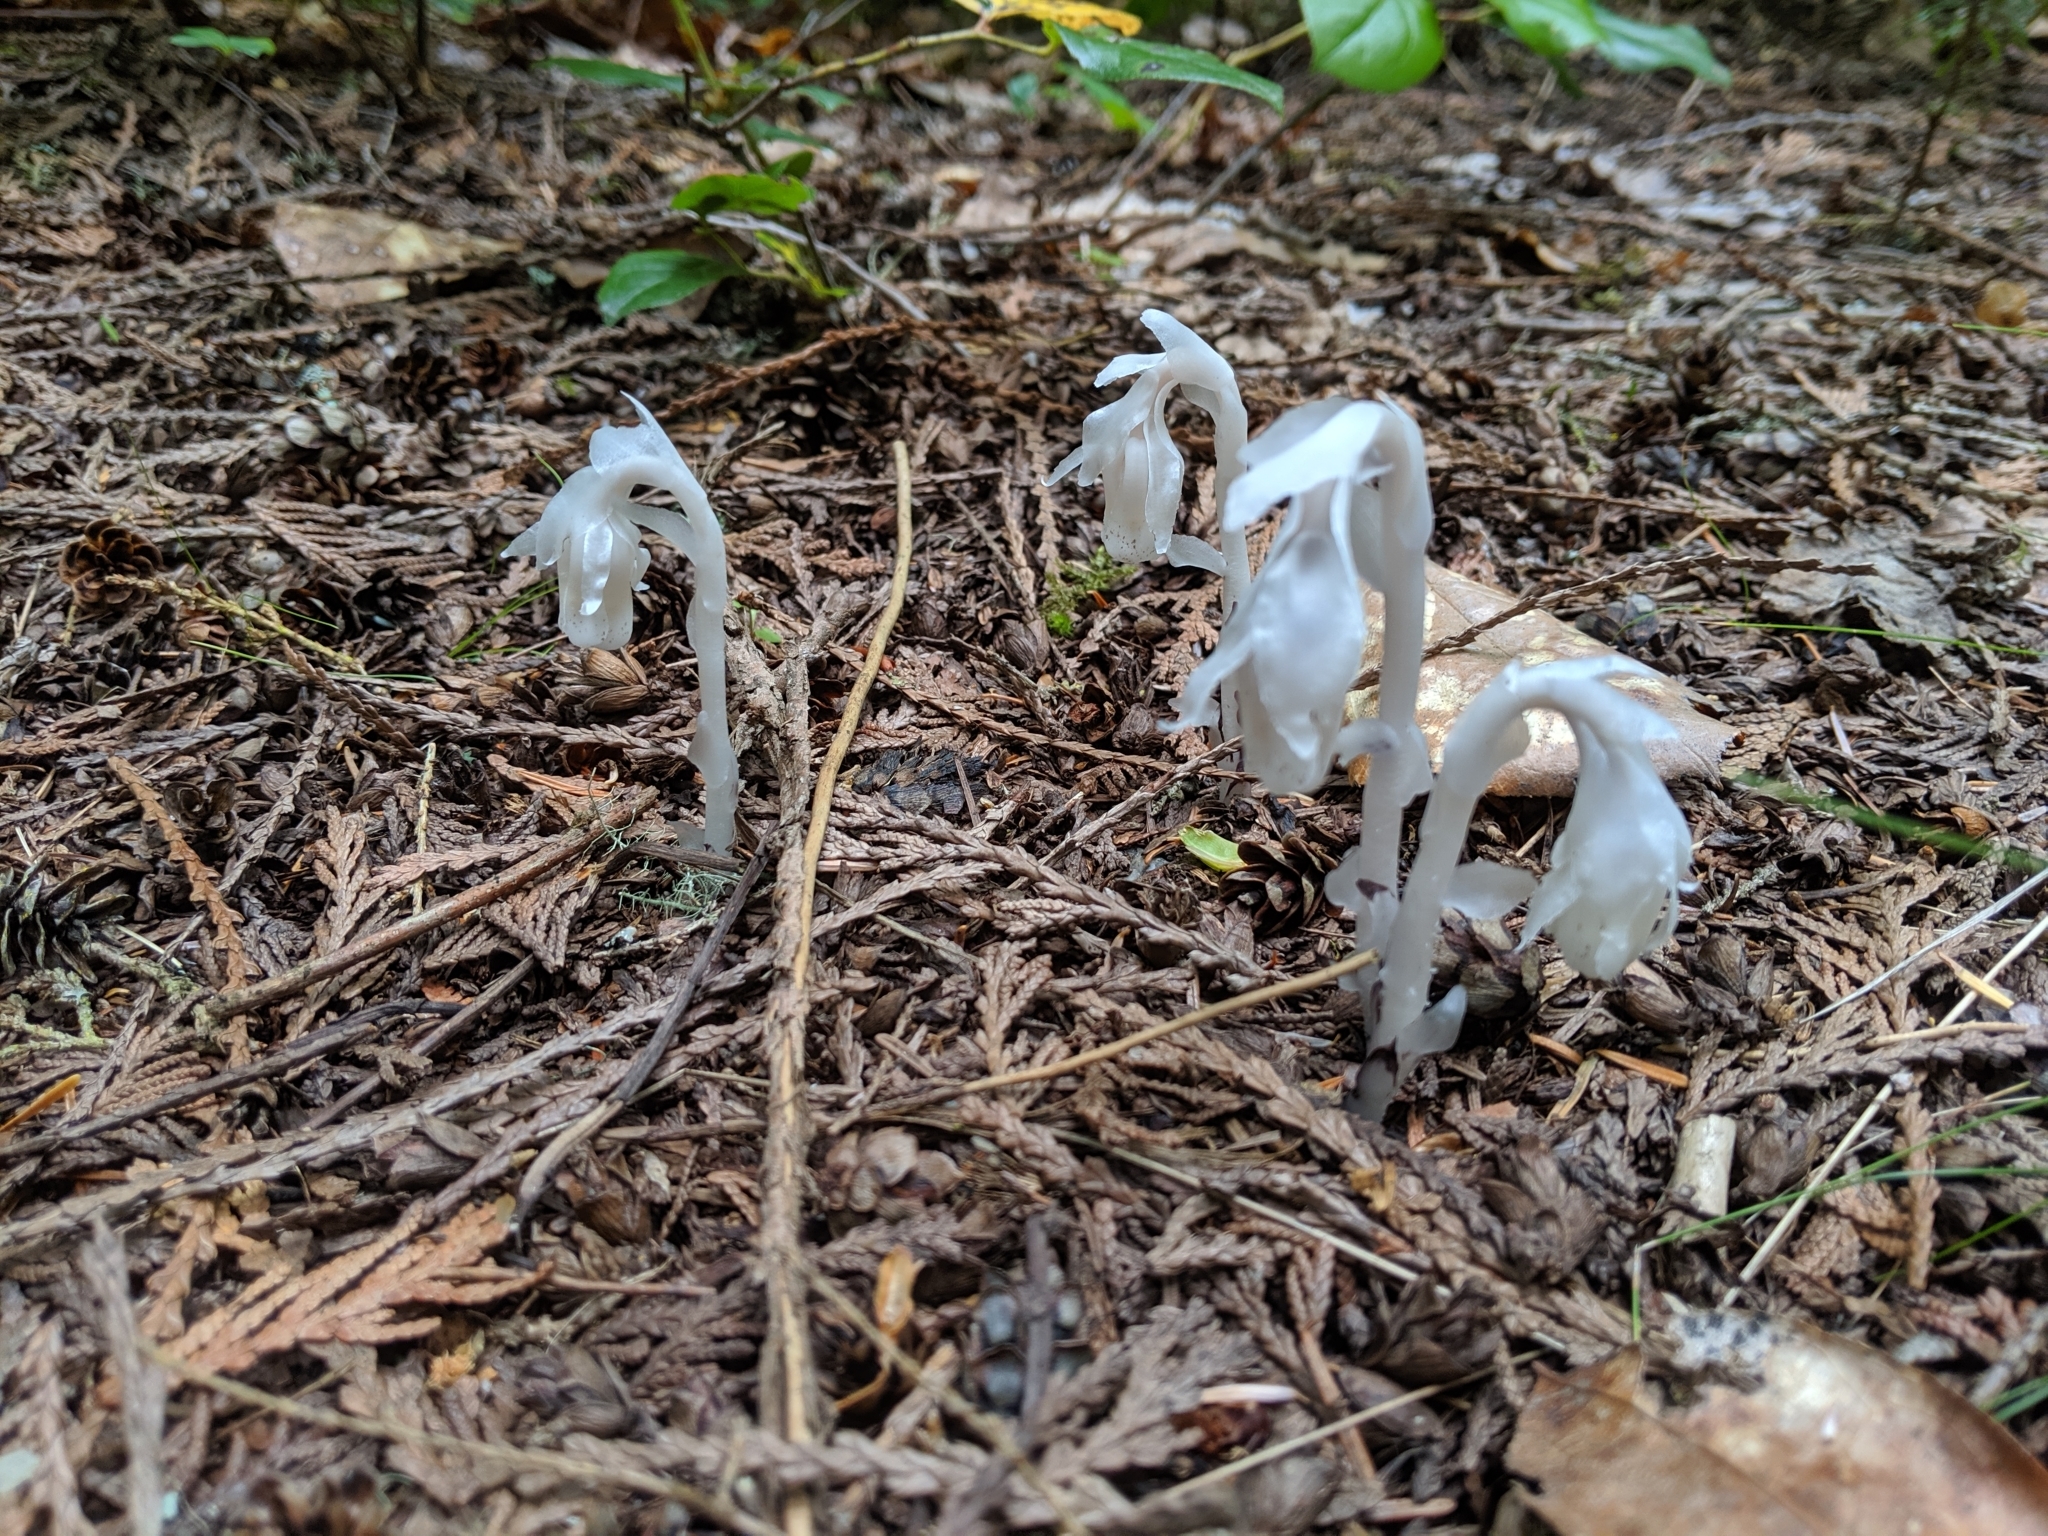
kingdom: Plantae
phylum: Tracheophyta
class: Magnoliopsida
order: Ericales
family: Ericaceae
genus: Monotropa
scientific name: Monotropa uniflora
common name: Convulsion root
